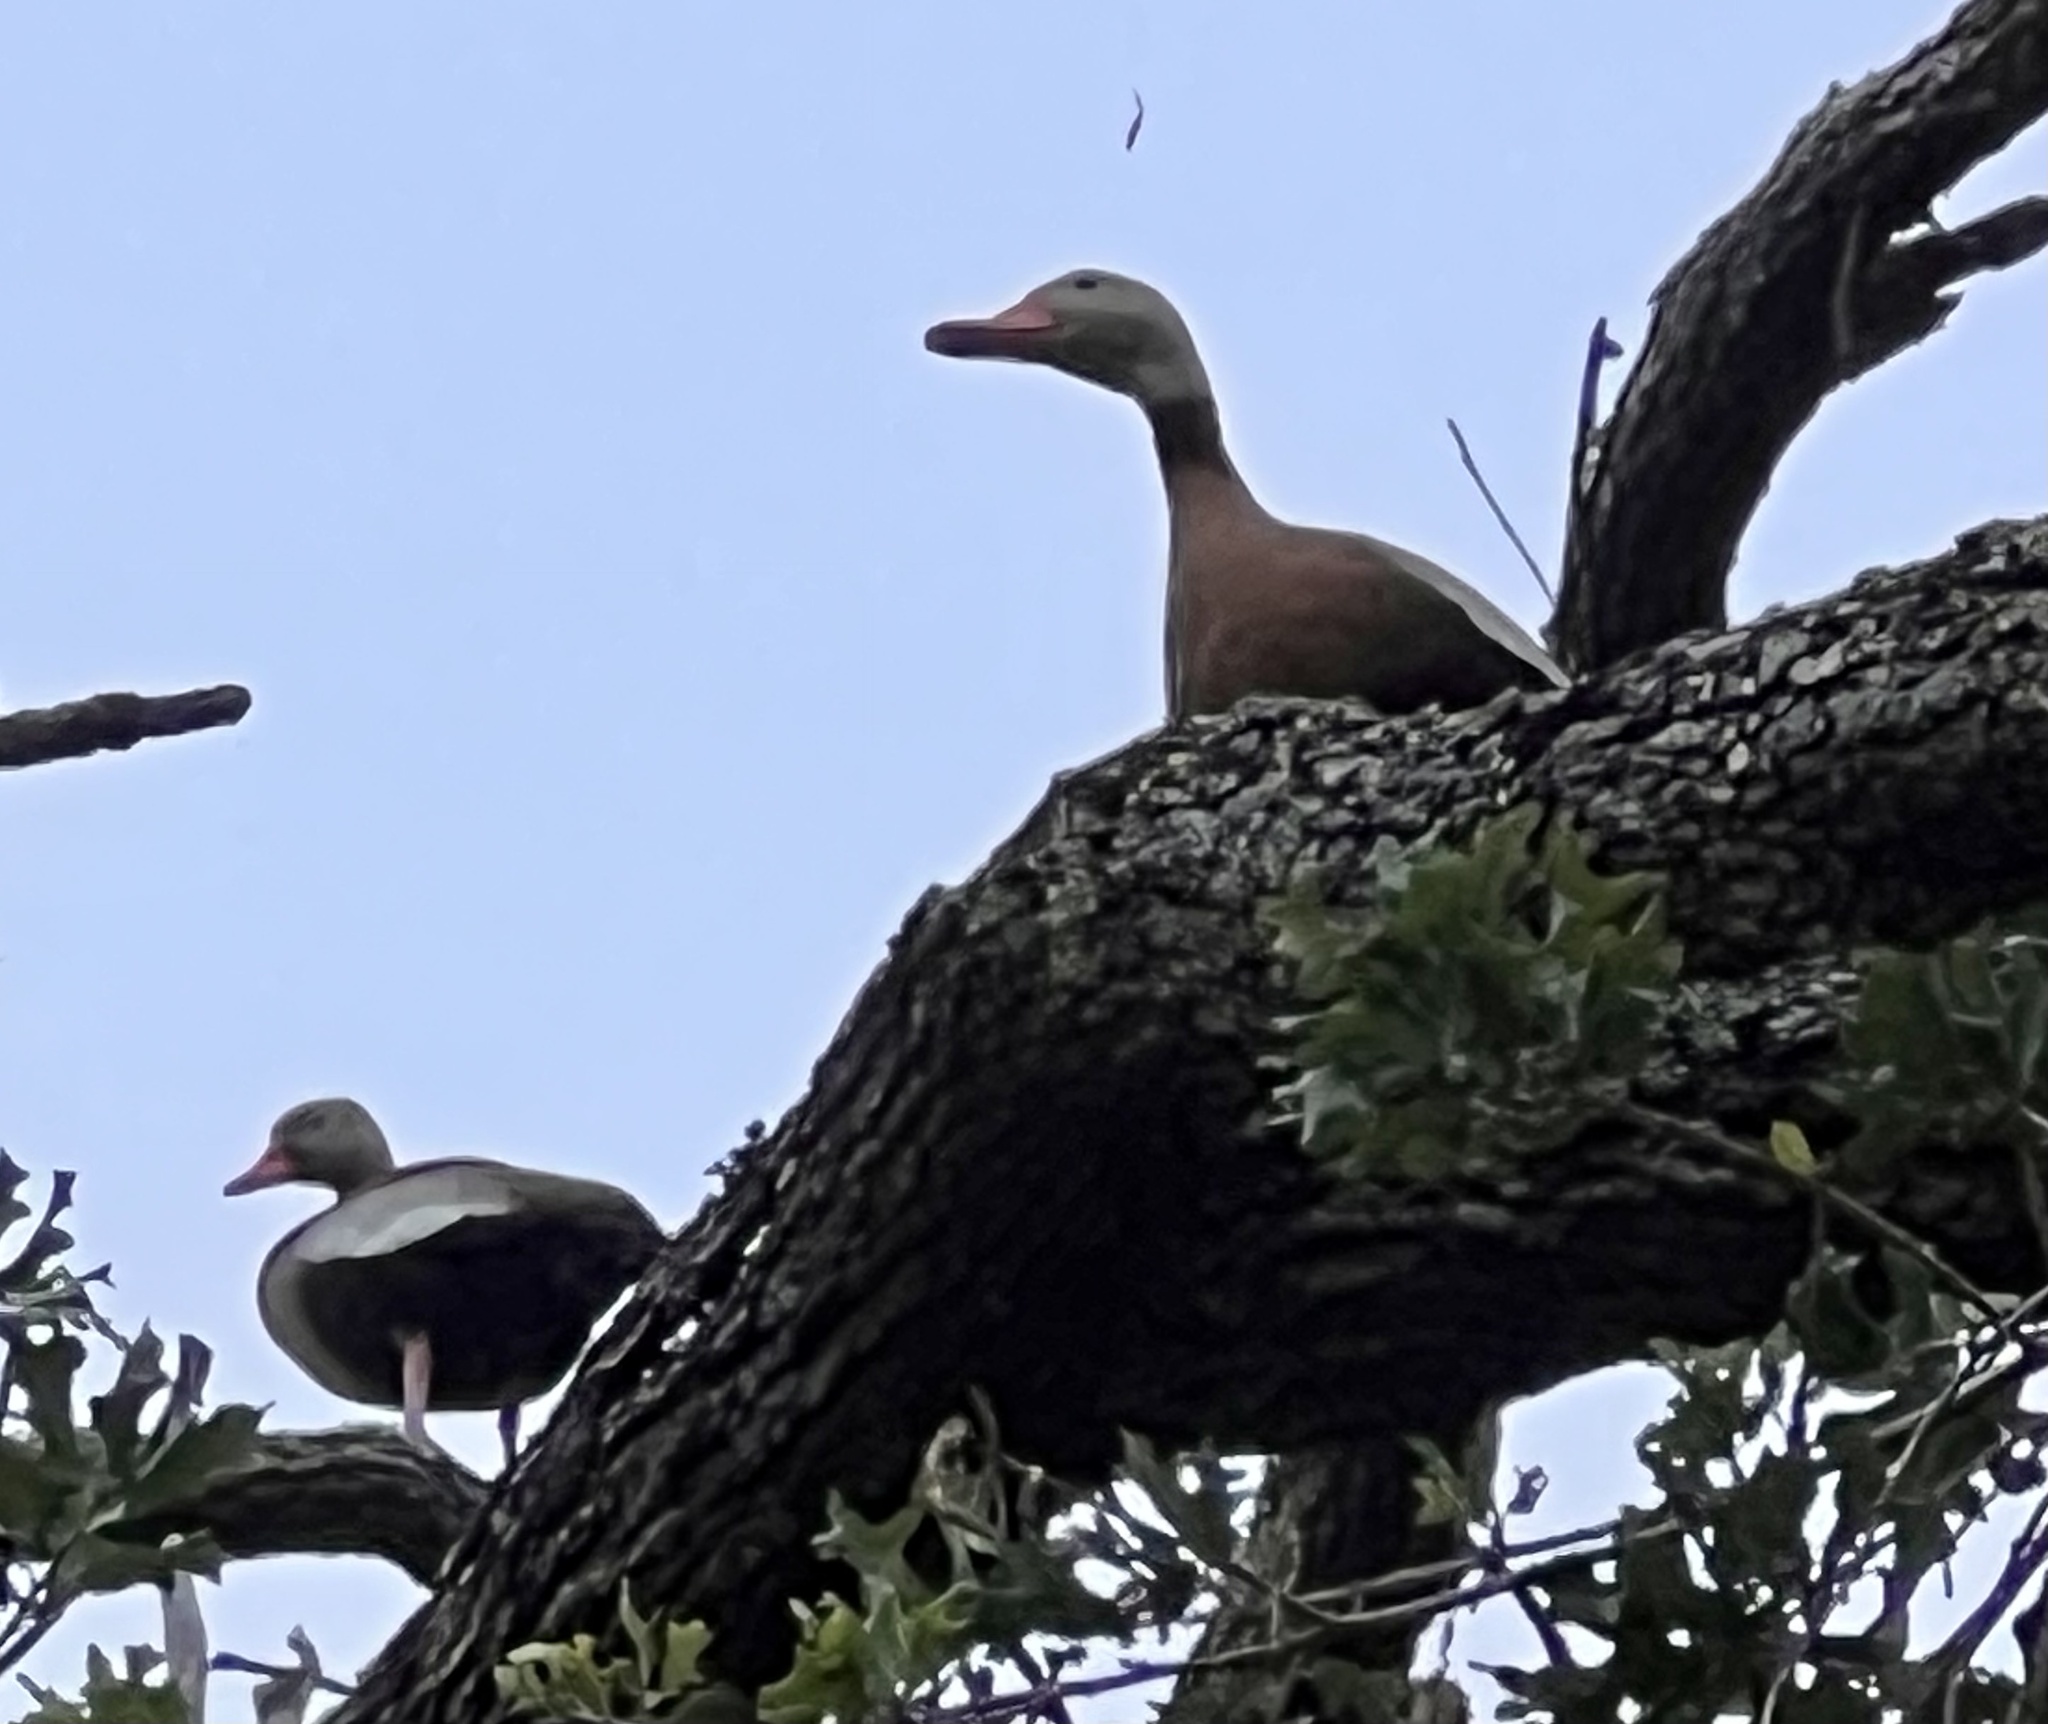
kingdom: Animalia
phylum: Chordata
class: Aves
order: Anseriformes
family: Anatidae
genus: Dendrocygna
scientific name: Dendrocygna autumnalis
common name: Black-bellied whistling duck
